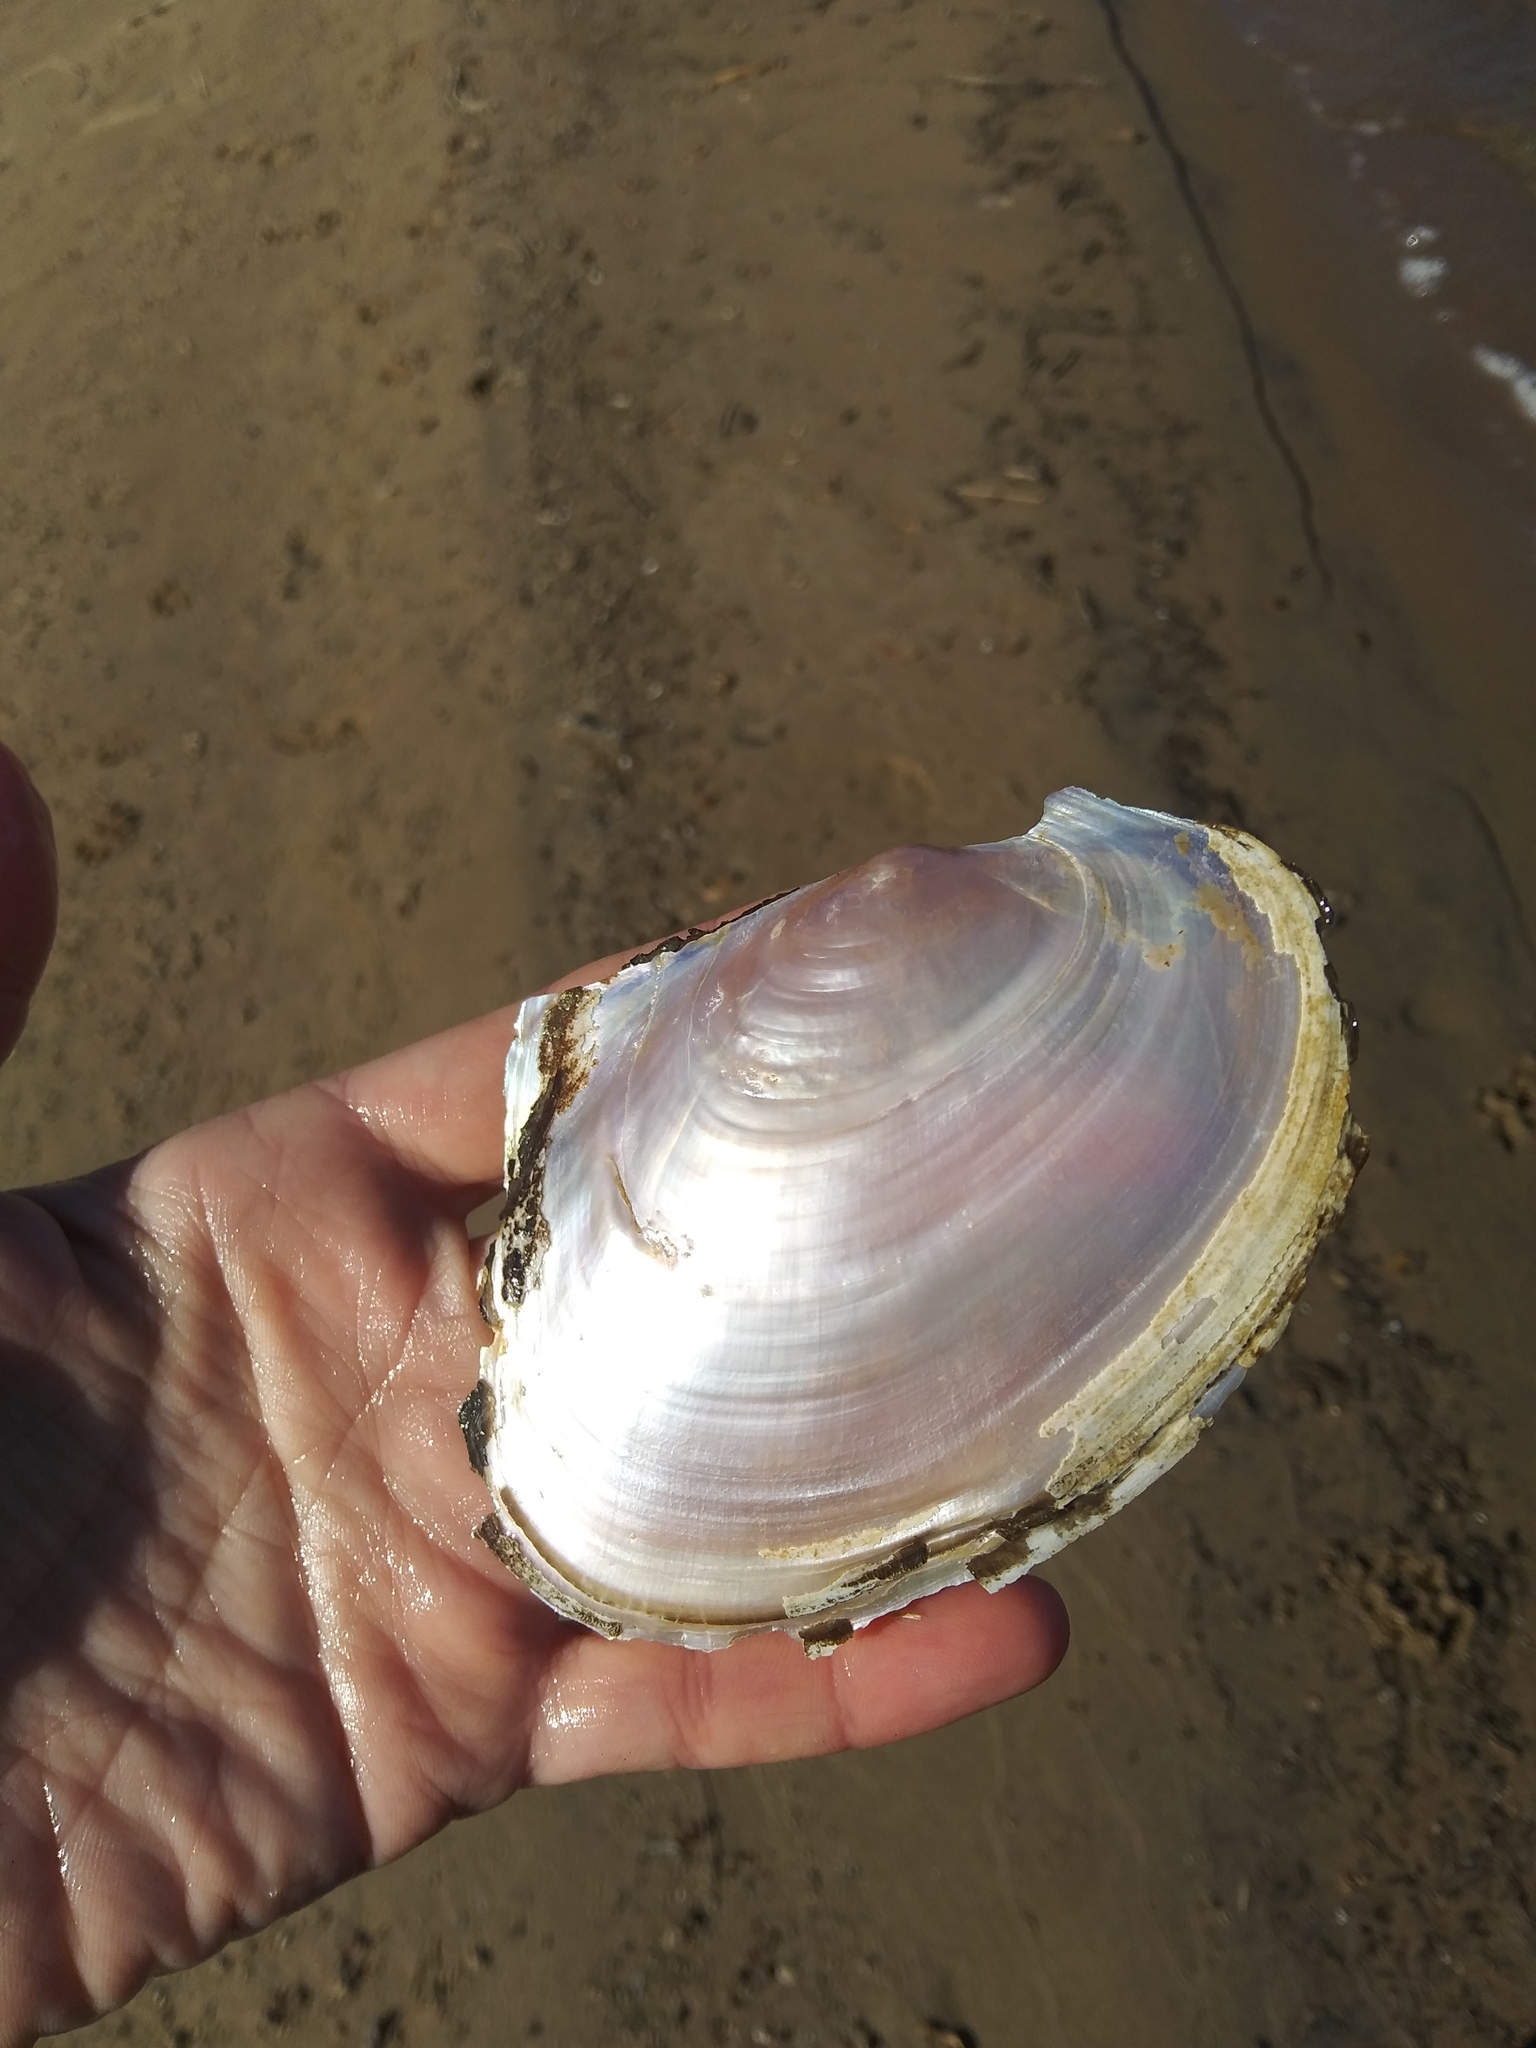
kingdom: Animalia
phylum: Mollusca
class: Bivalvia
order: Unionida
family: Unionidae
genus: Potamilus
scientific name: Potamilus ohiensis
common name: Pink papershell
